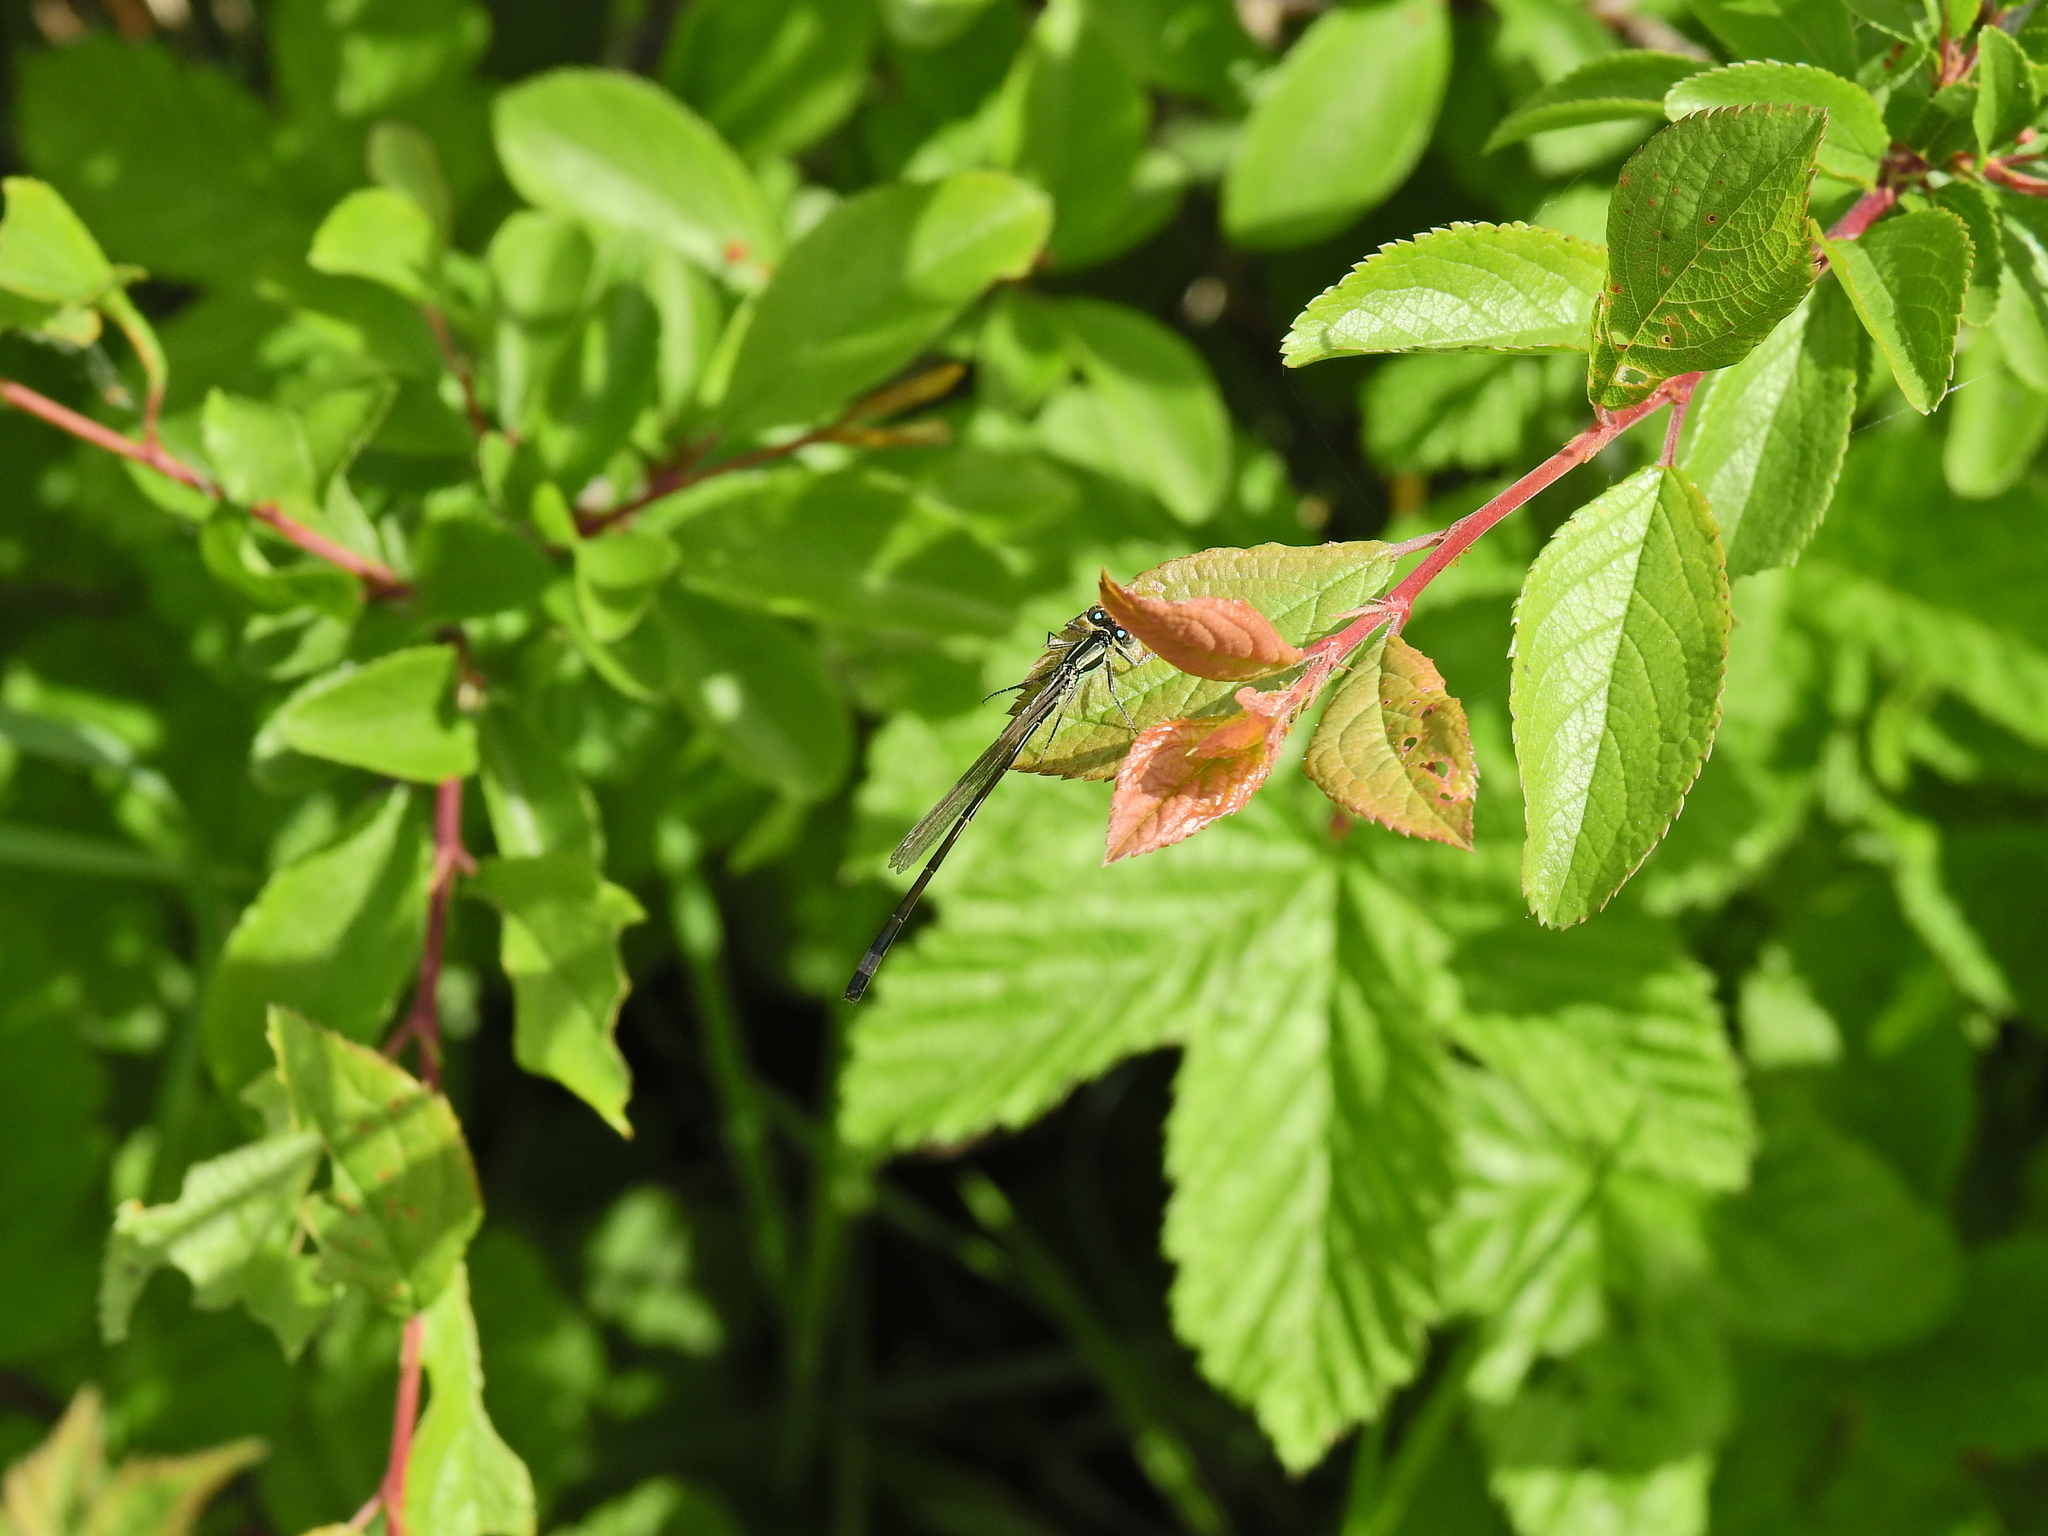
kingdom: Animalia
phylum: Arthropoda
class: Insecta
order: Odonata
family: Coenagrionidae
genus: Ischnura
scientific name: Ischnura elegans
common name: Blue-tailed damselfly
